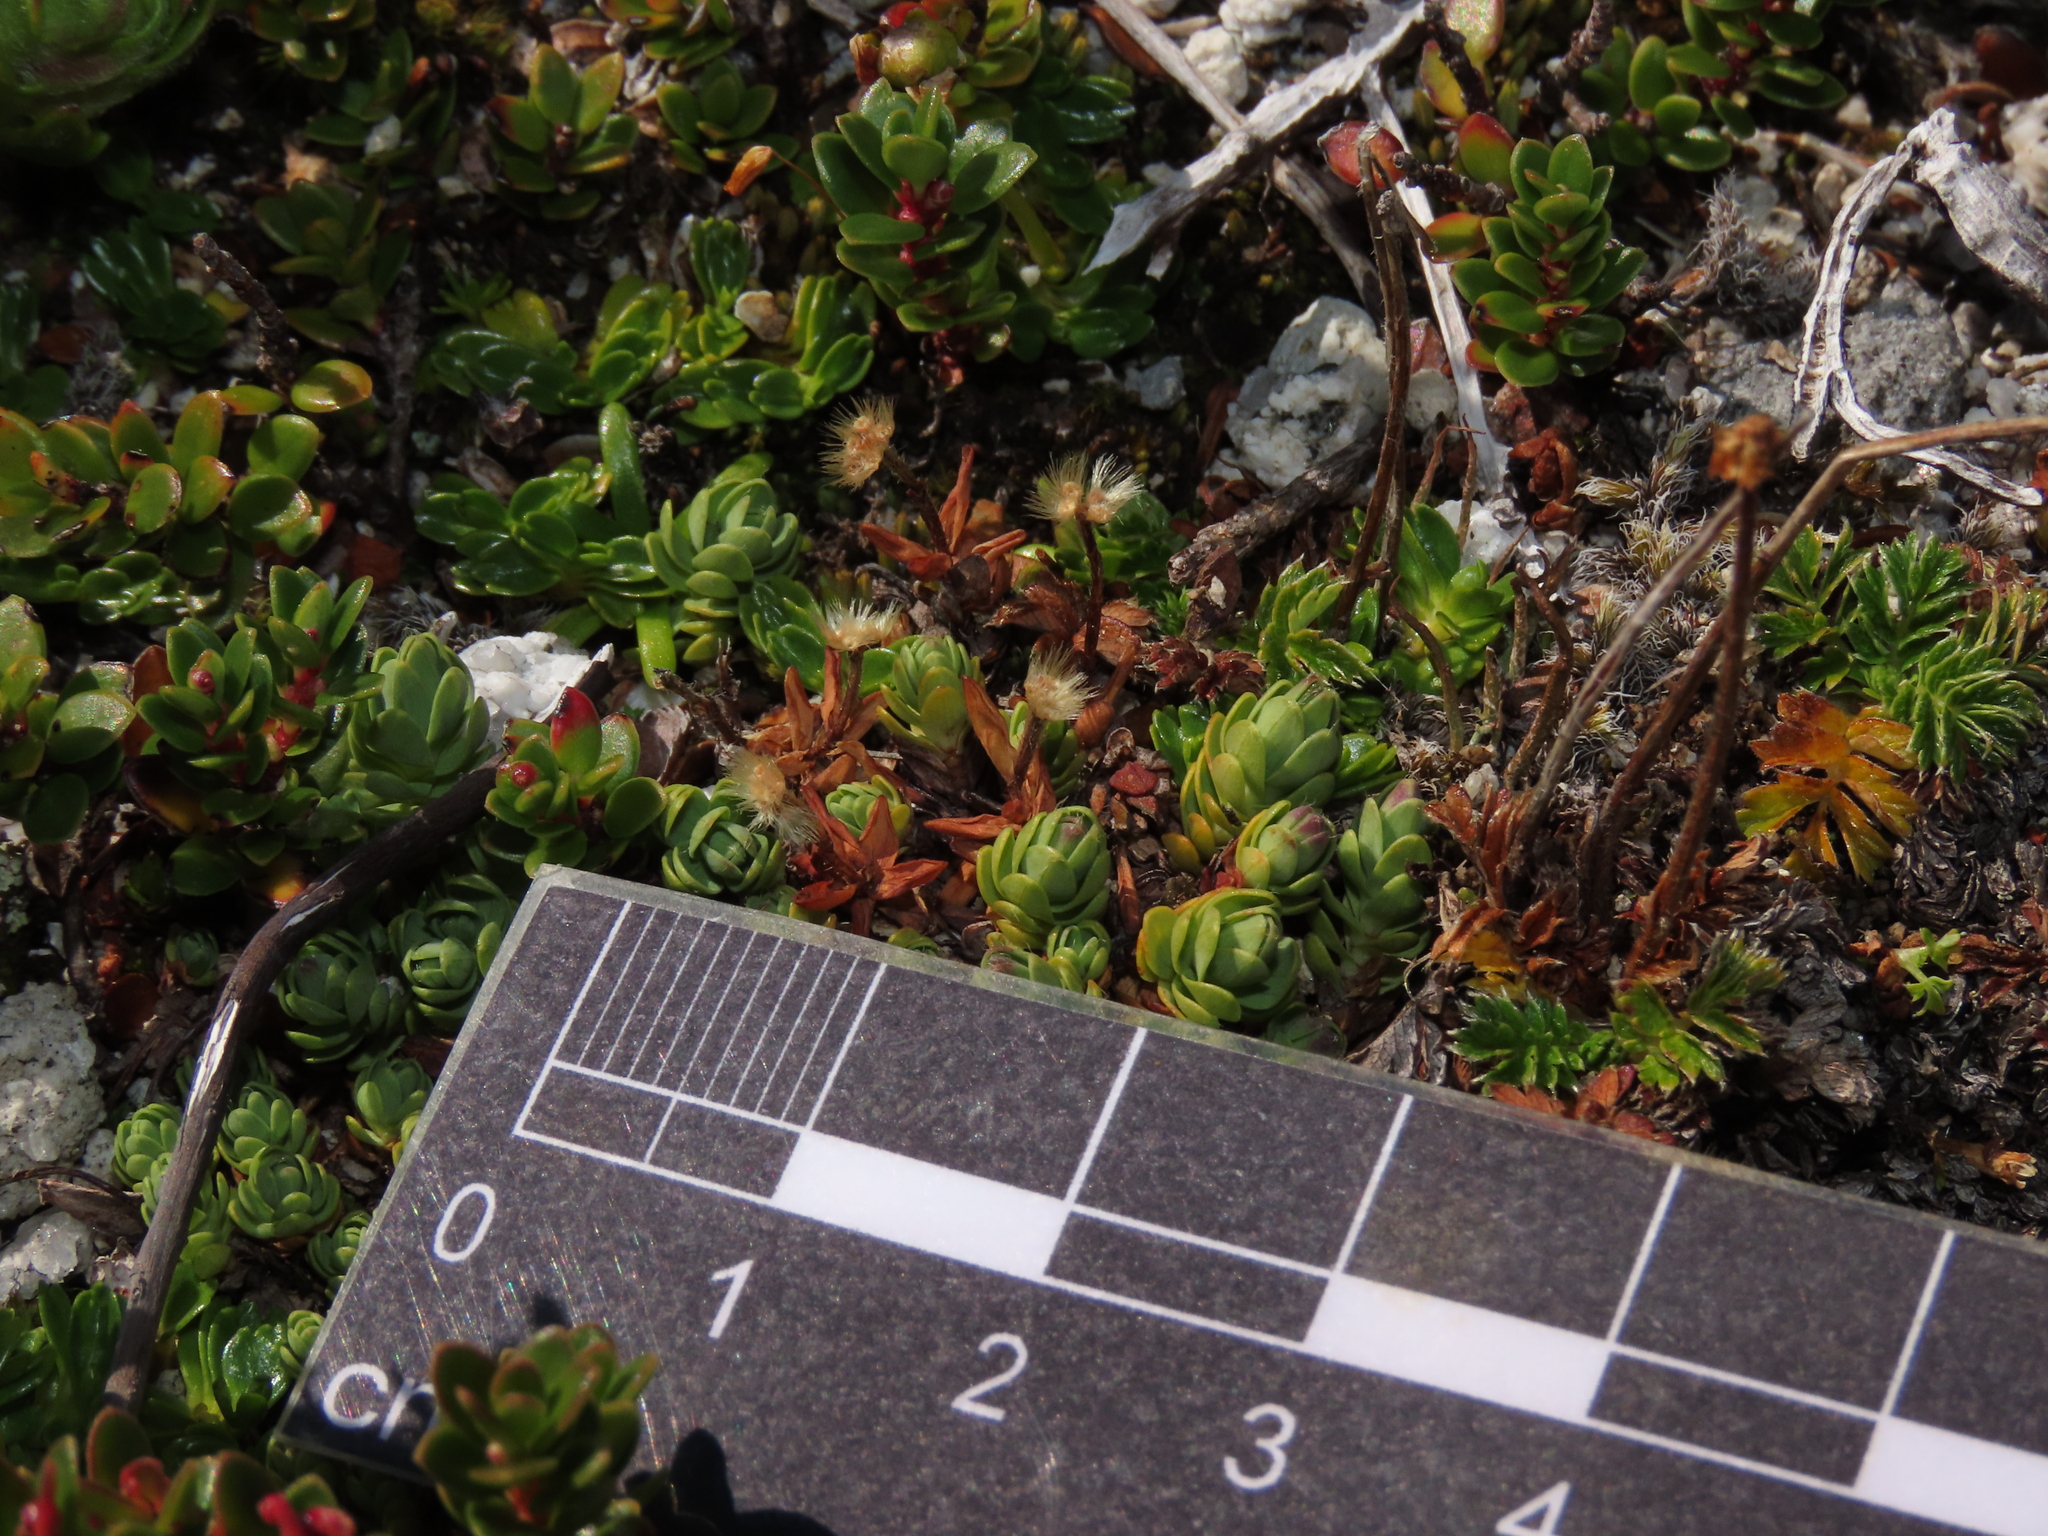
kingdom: Plantae
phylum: Tracheophyta
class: Magnoliopsida
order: Malvales
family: Thymelaeaceae
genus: Drapetes
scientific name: Drapetes muscosus
